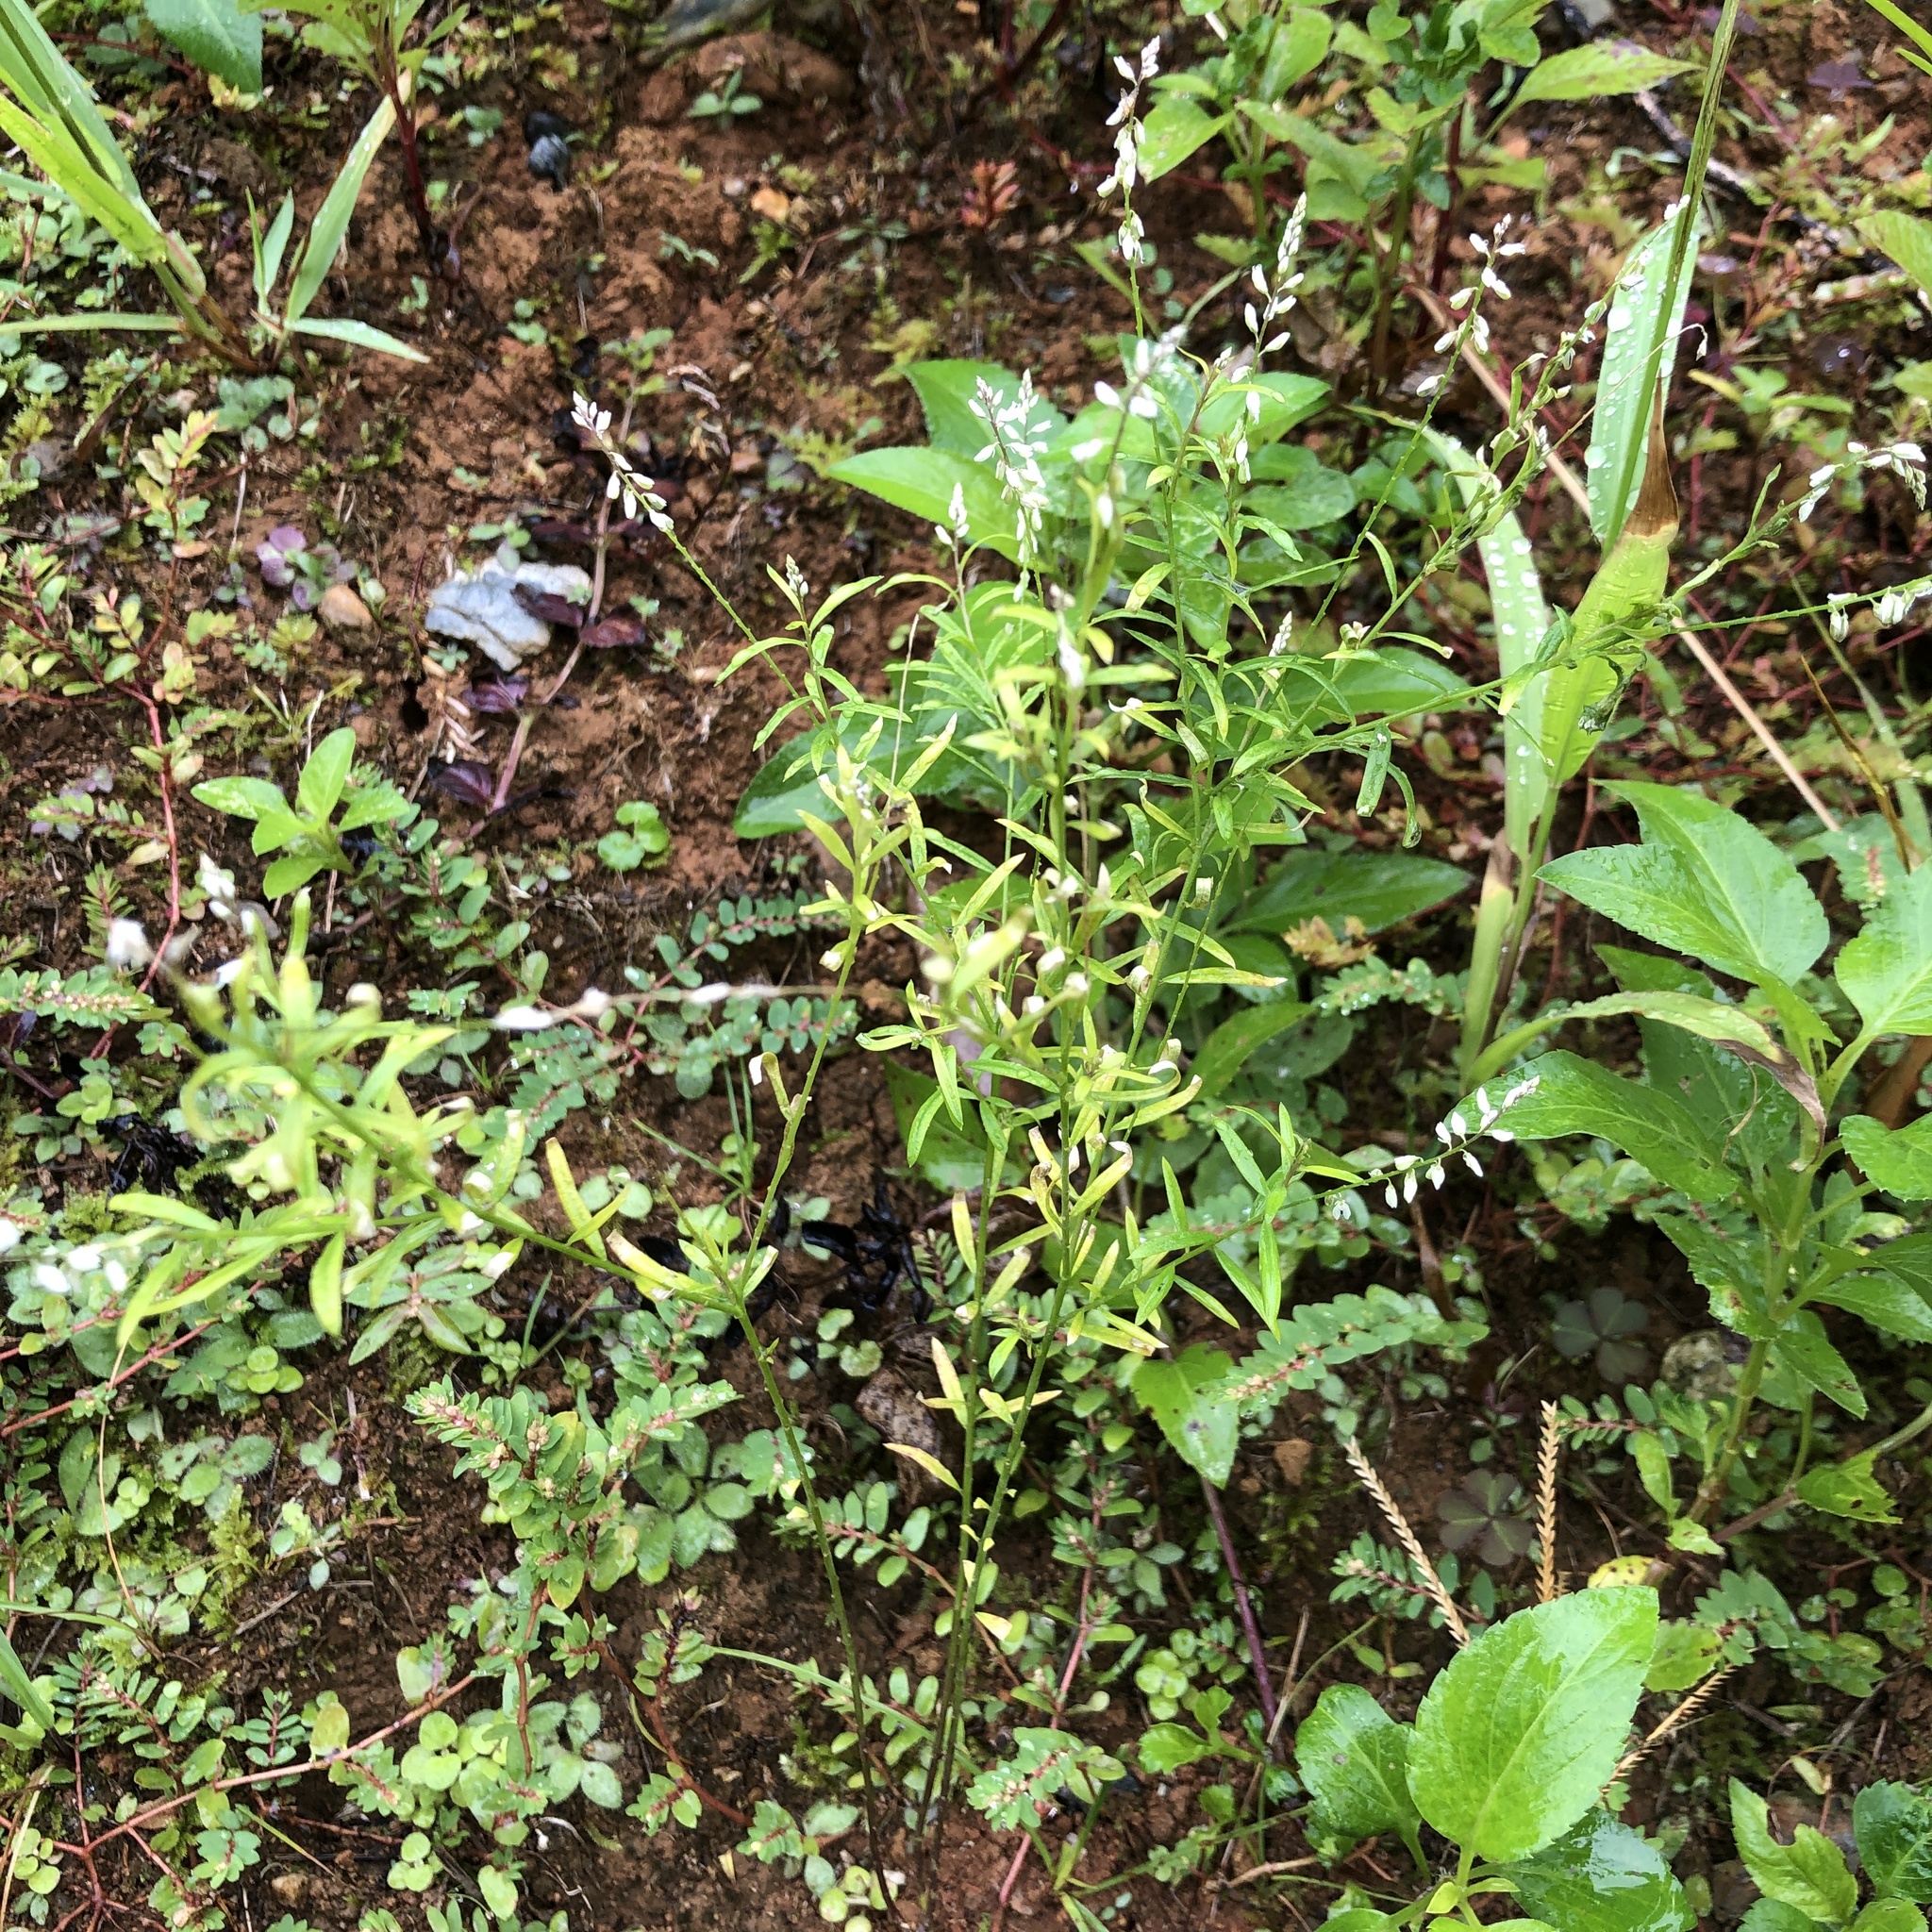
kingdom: Plantae
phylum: Tracheophyta
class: Magnoliopsida
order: Fabales
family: Polygalaceae
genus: Polygala
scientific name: Polygala paniculata
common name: Orosne
